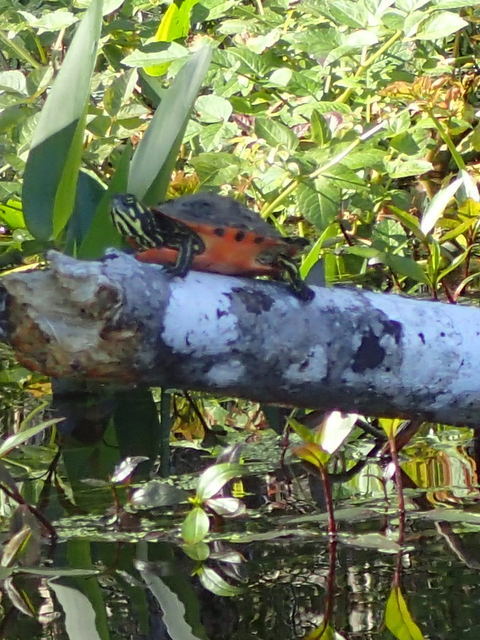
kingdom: Animalia
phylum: Chordata
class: Testudines
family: Emydidae
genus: Pseudemys
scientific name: Pseudemys nelsoni
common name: Florida red-bellied turtle
